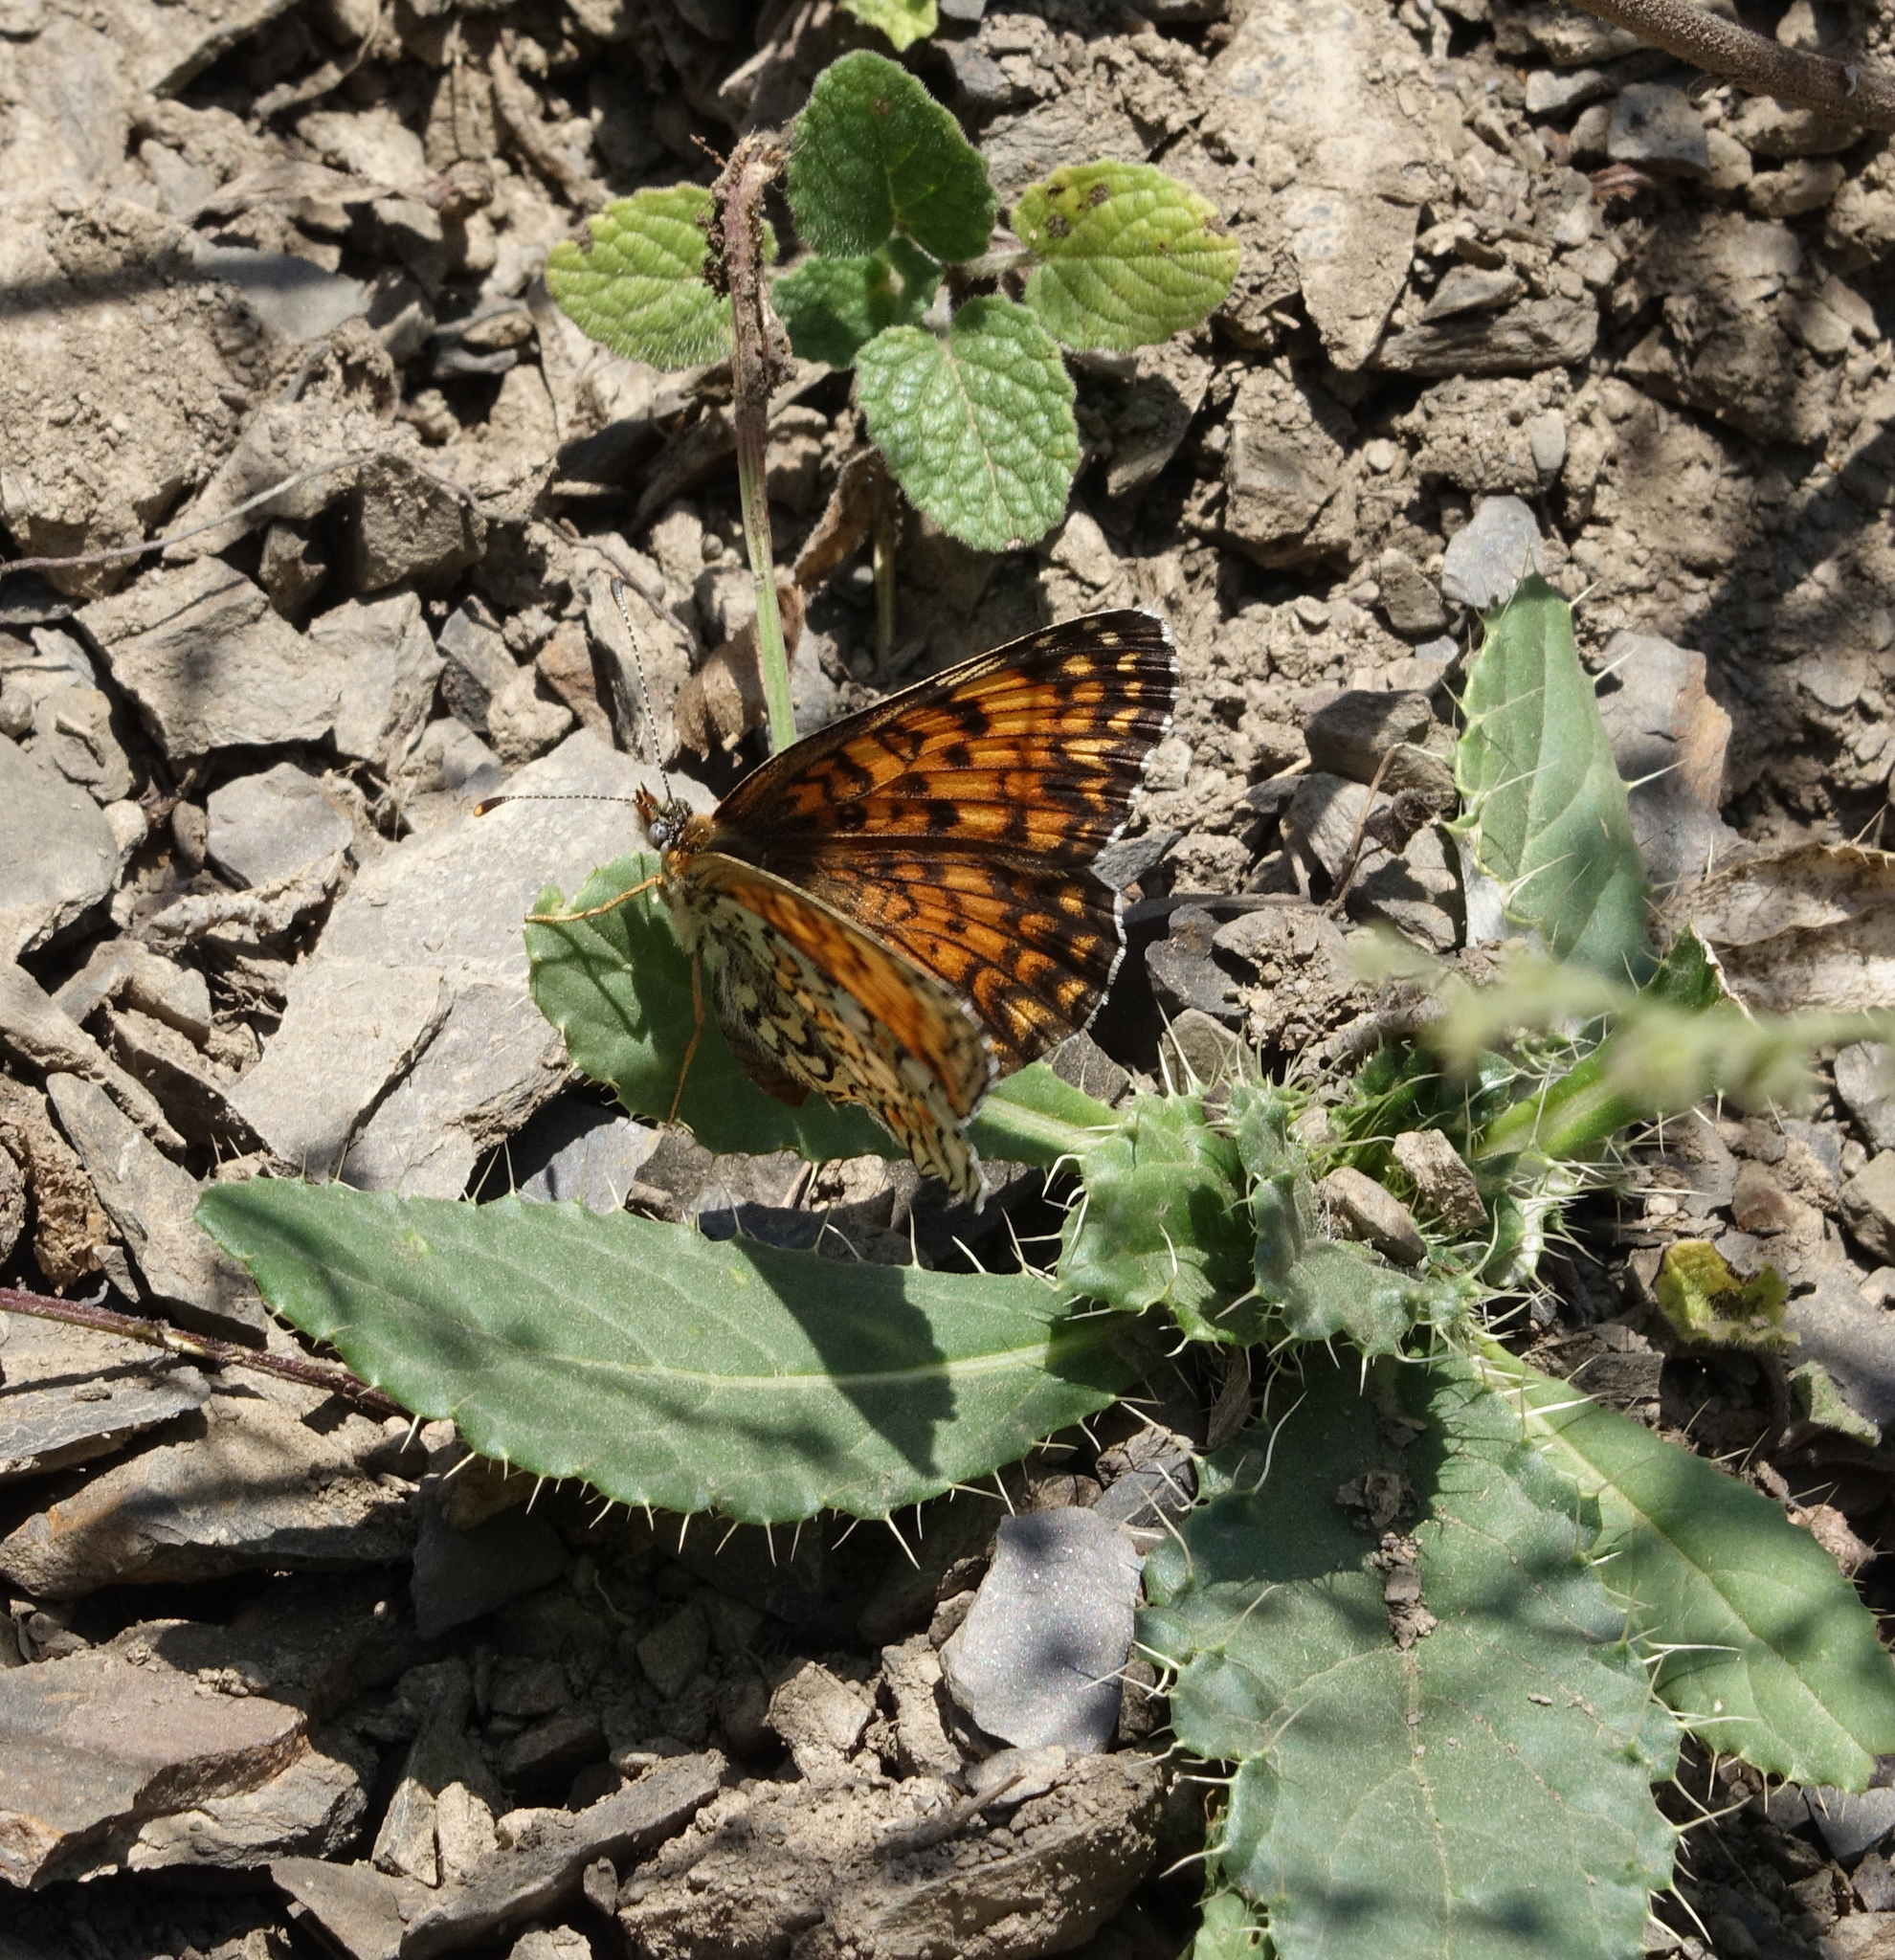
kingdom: Animalia
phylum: Arthropoda
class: Insecta
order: Lepidoptera
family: Nymphalidae
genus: Melitaea
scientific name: Melitaea phoebe
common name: Knapweed fritillary
